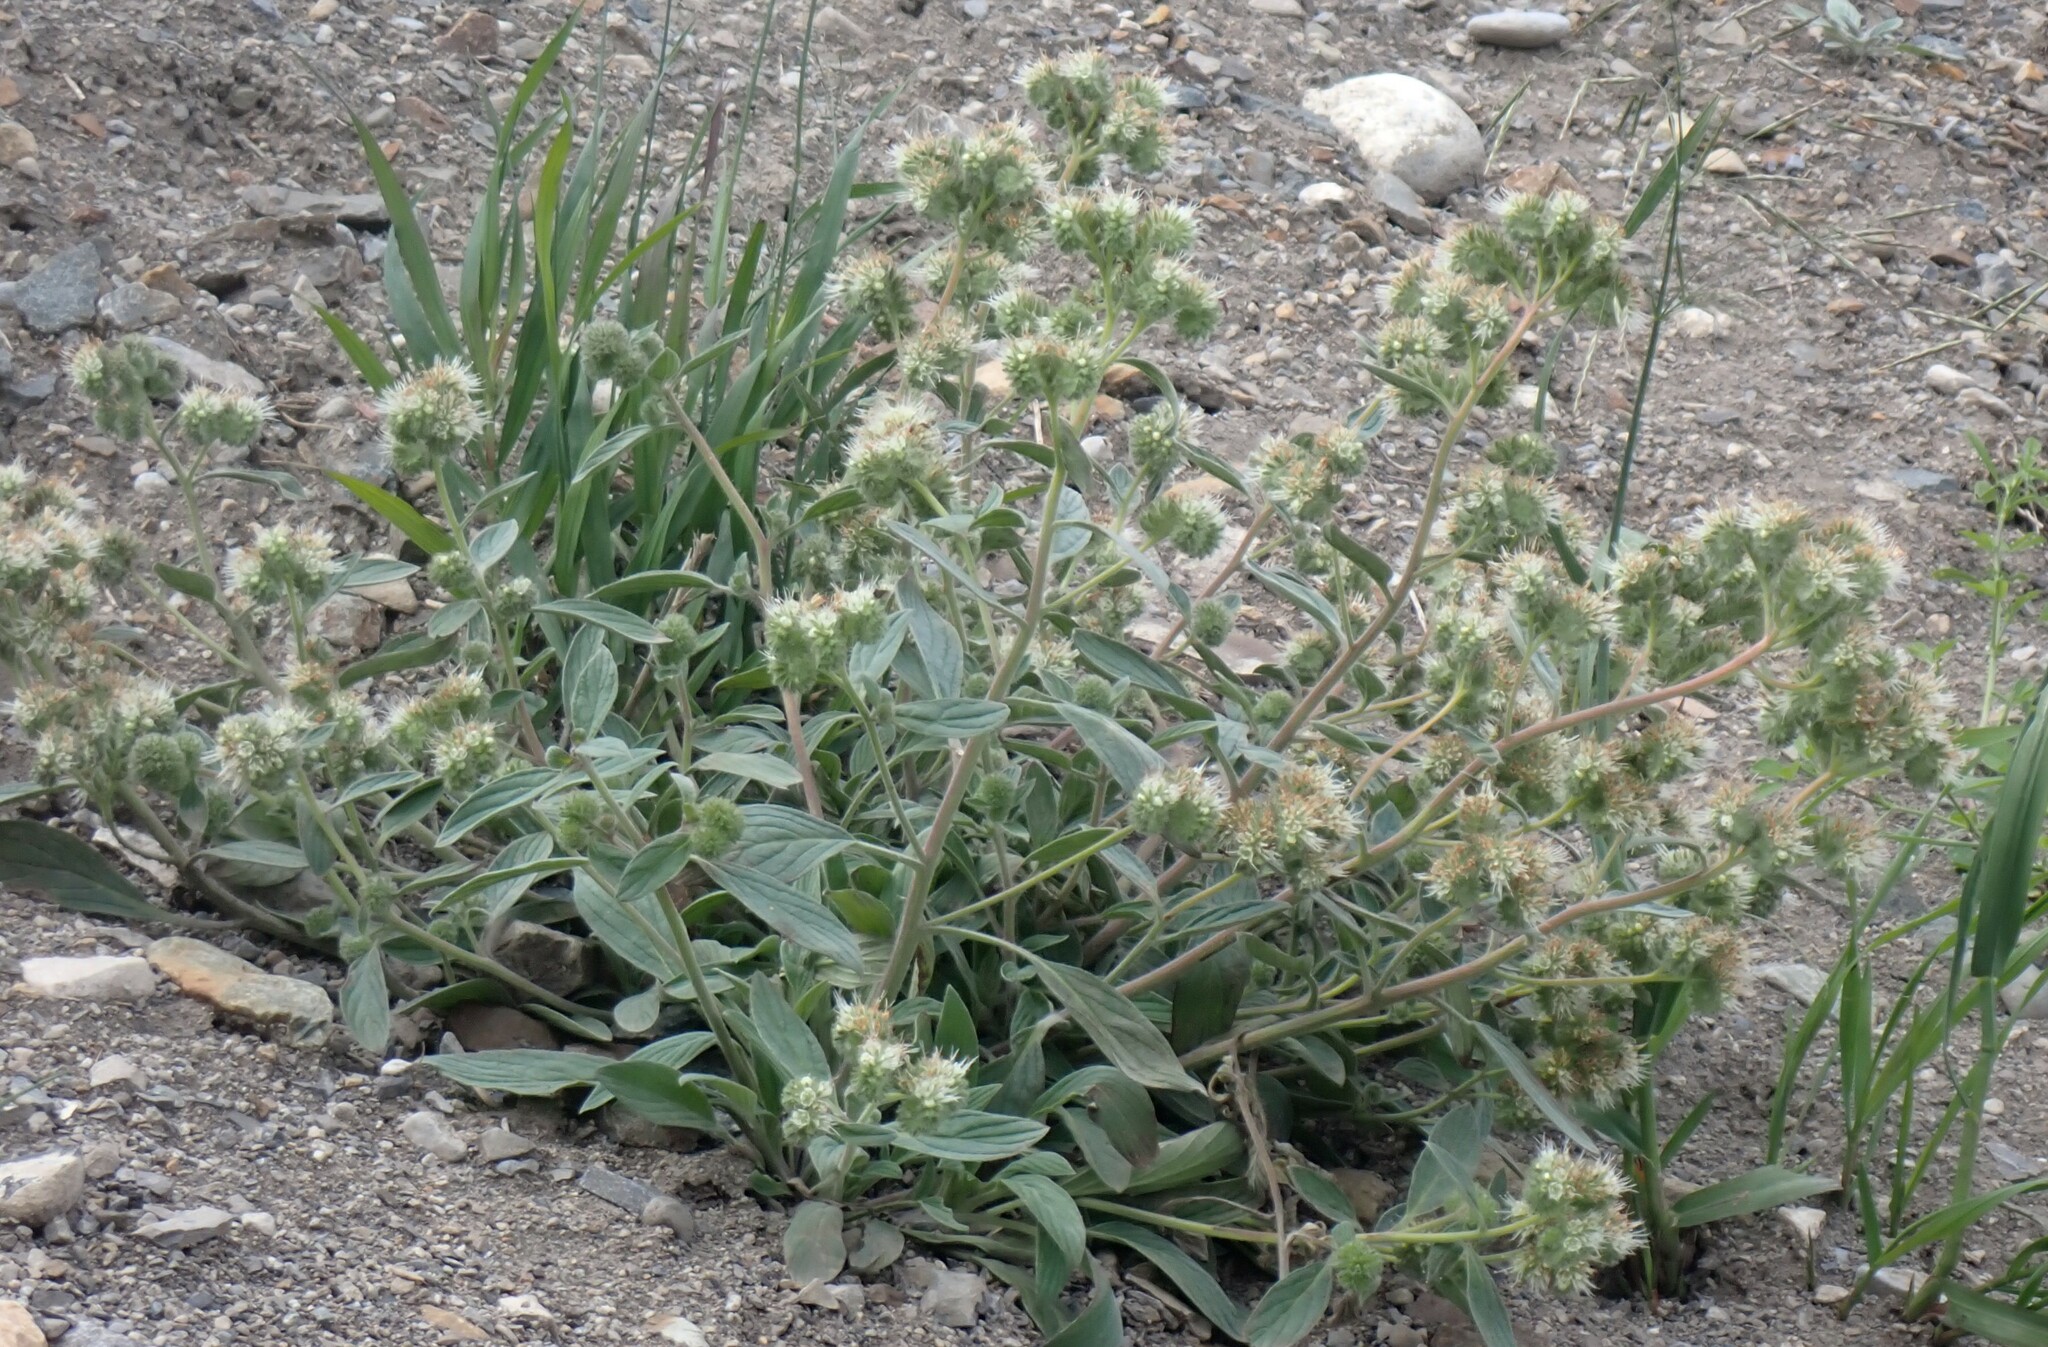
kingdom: Plantae
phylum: Tracheophyta
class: Magnoliopsida
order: Boraginales
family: Hydrophyllaceae
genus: Phacelia
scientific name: Phacelia hastata
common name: Silver-leaved phacelia
